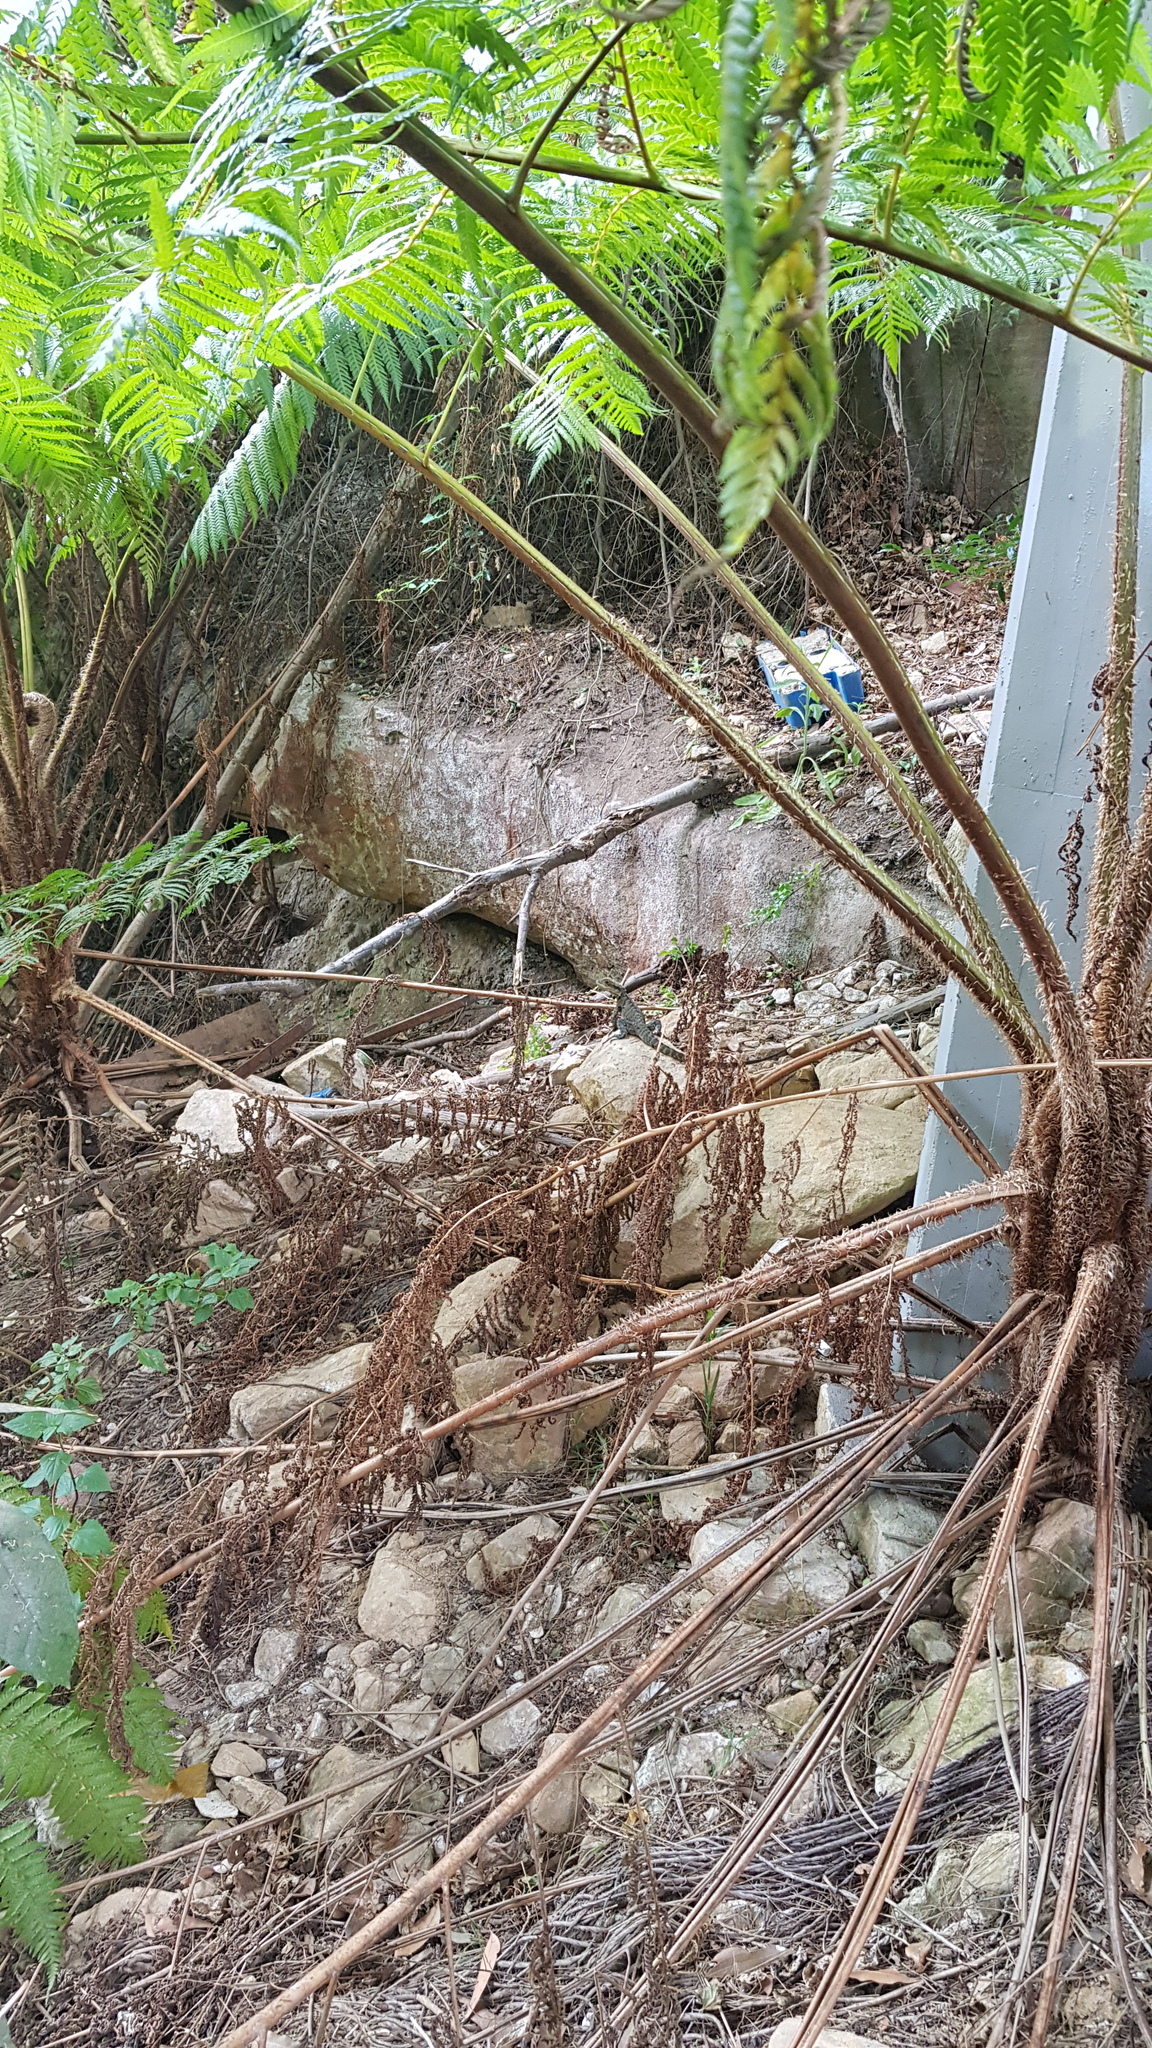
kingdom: Animalia
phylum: Chordata
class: Squamata
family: Agamidae
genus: Intellagama
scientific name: Intellagama lesueurii
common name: Eastern water dragon
